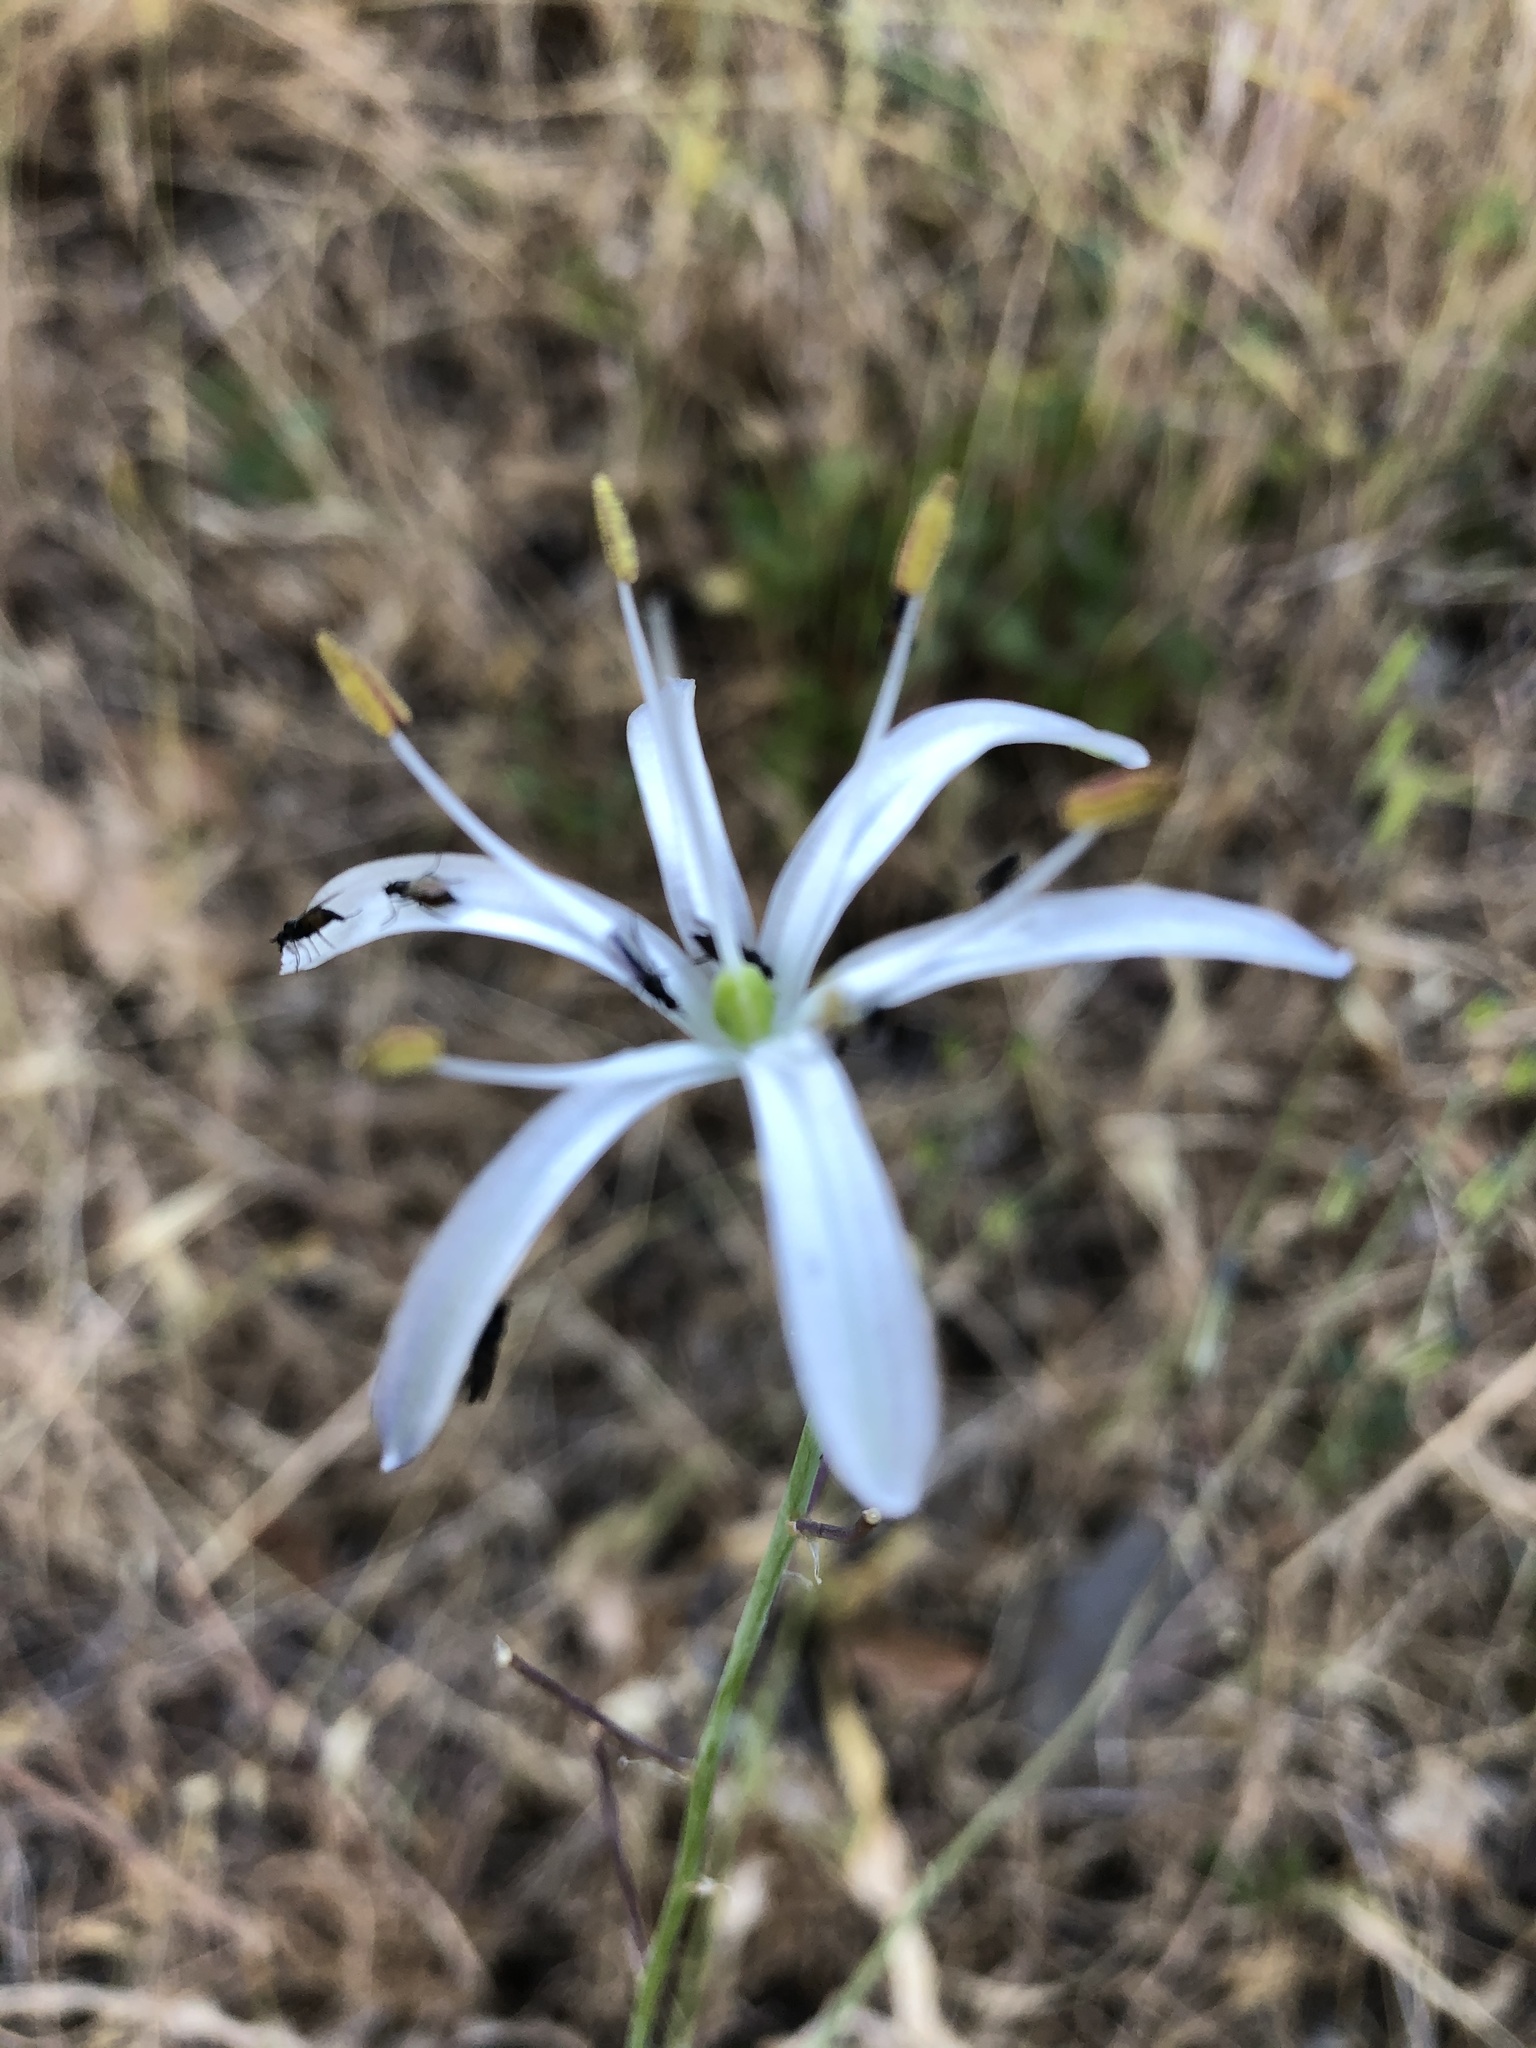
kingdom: Plantae
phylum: Tracheophyta
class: Liliopsida
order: Asparagales
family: Asparagaceae
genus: Chlorogalum
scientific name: Chlorogalum pomeridianum
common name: Amole
